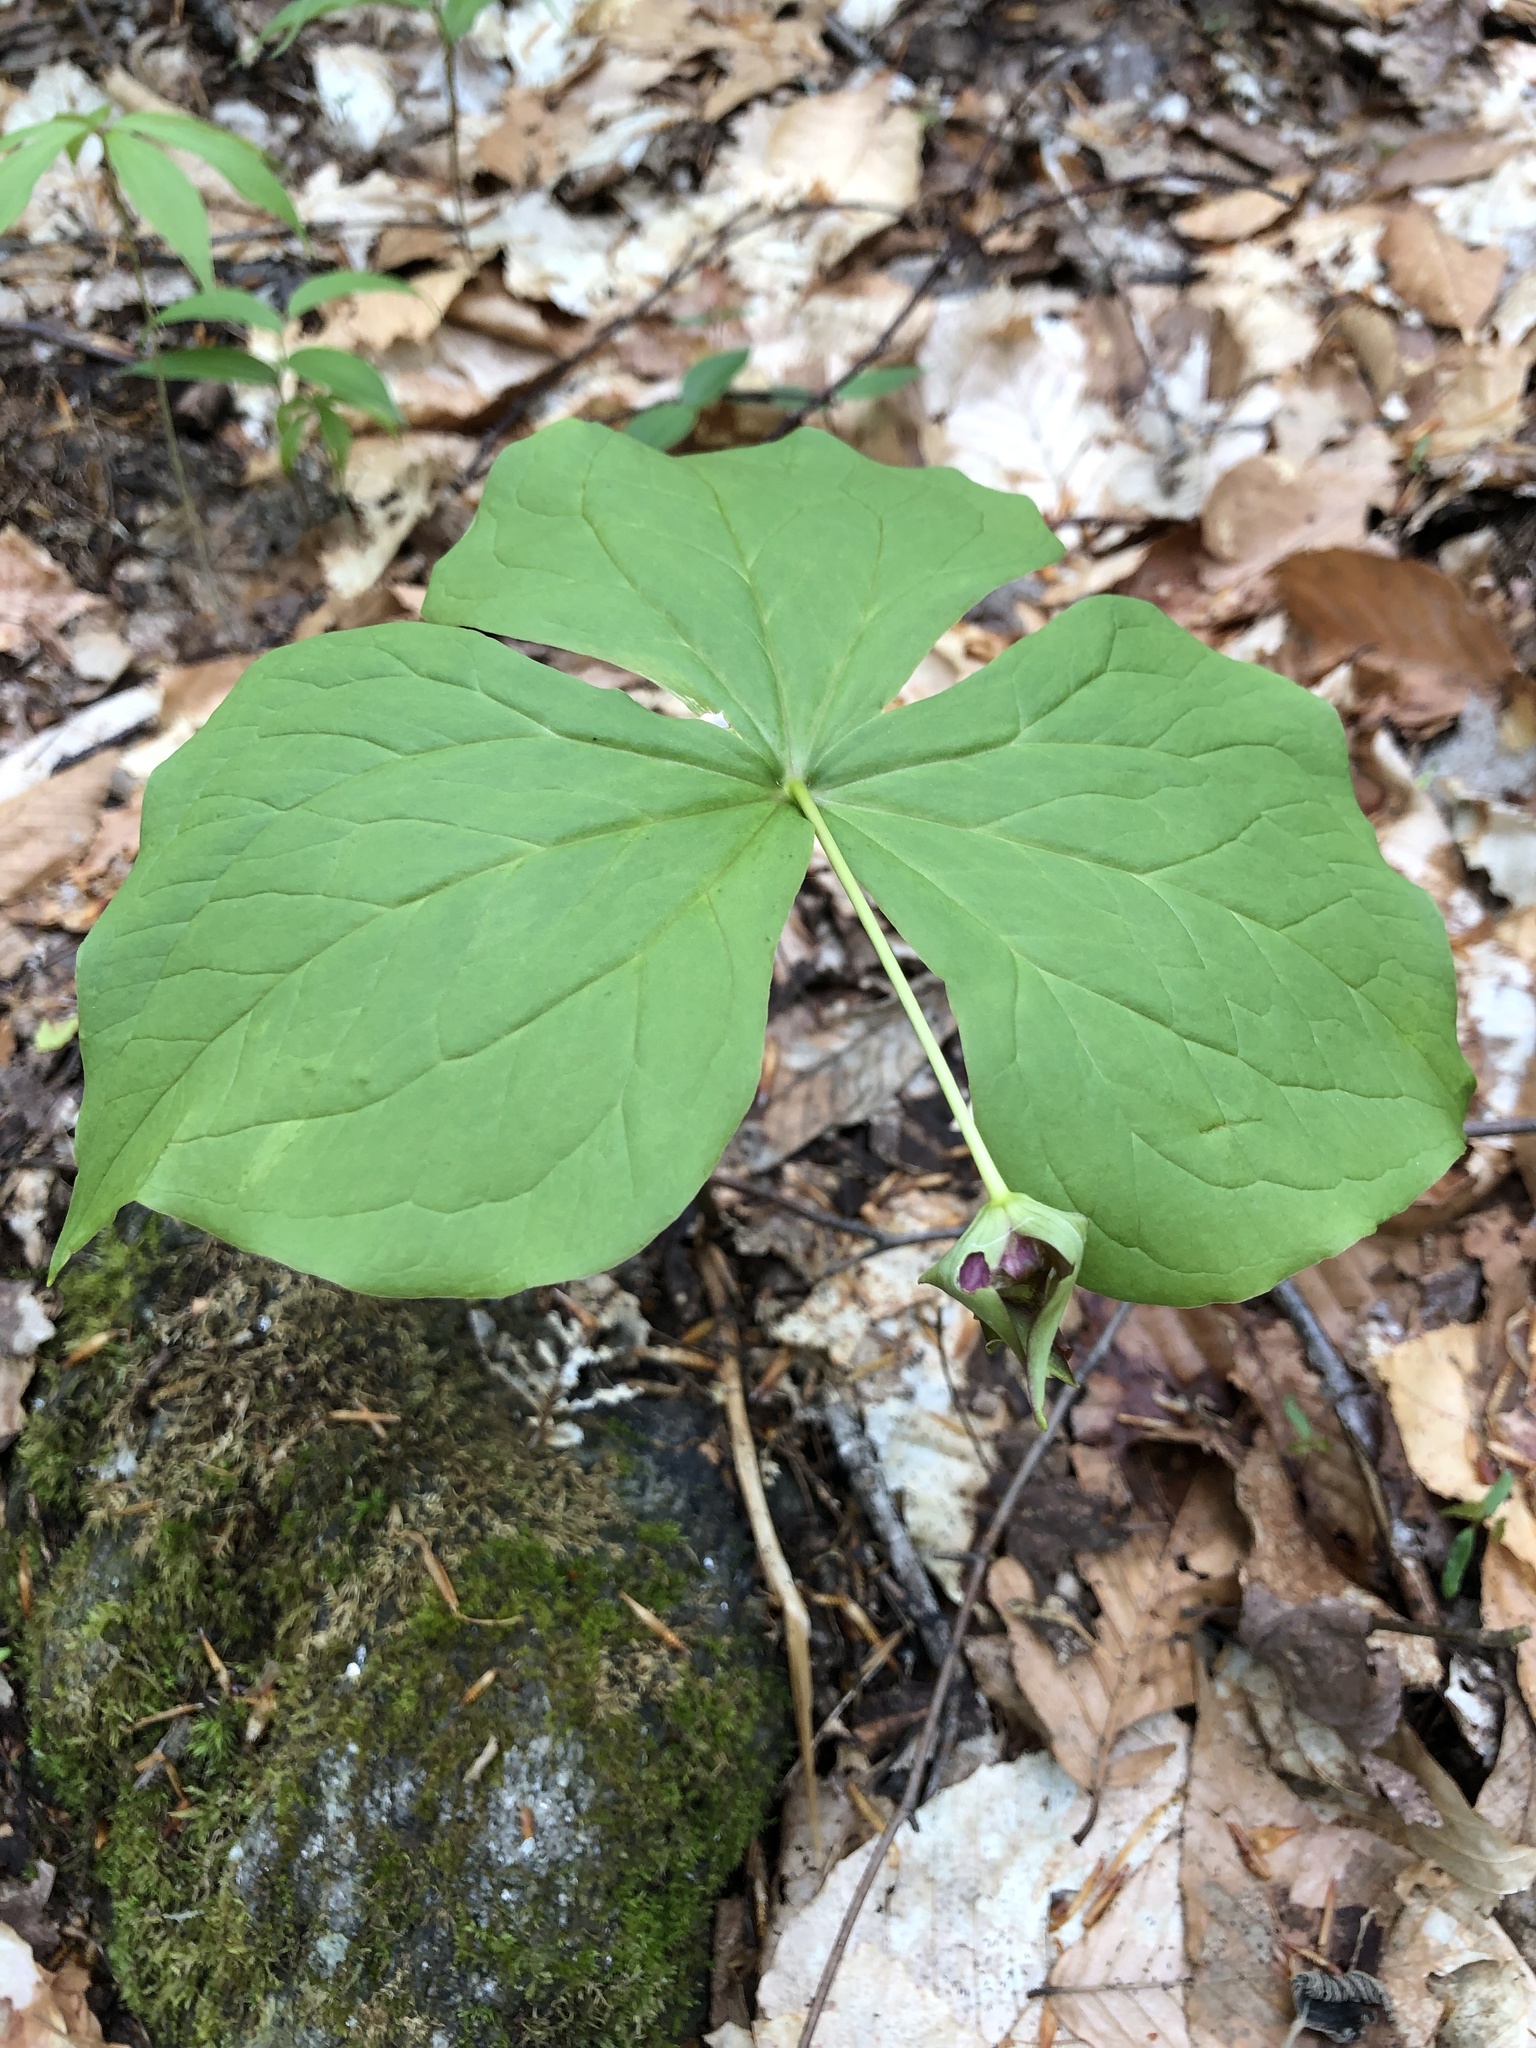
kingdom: Plantae
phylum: Tracheophyta
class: Liliopsida
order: Liliales
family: Melanthiaceae
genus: Trillium
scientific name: Trillium erectum
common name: Purple trillium
